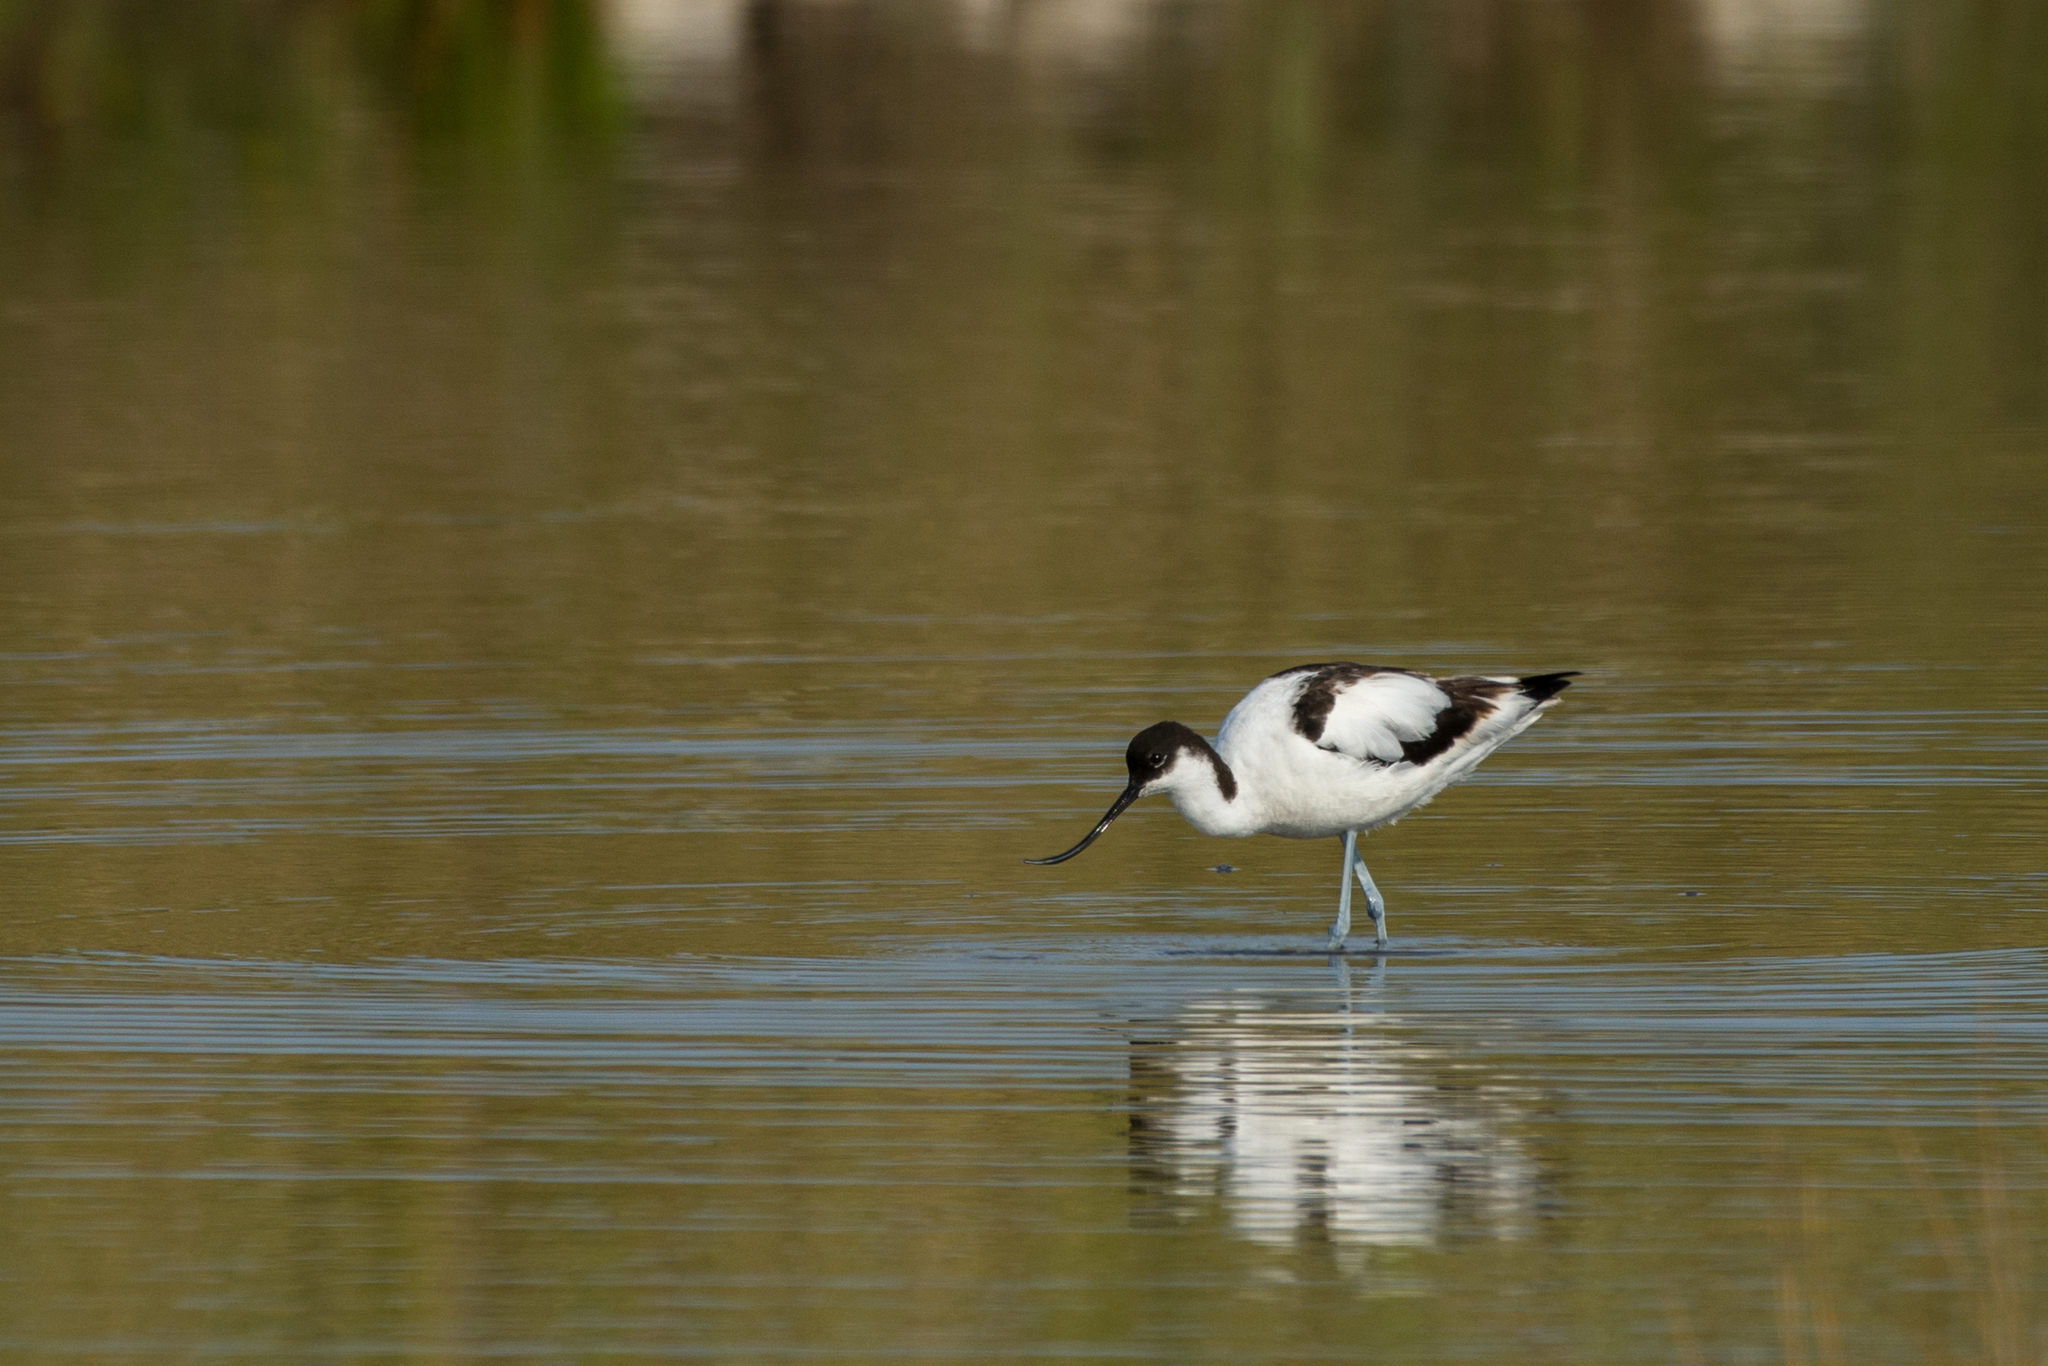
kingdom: Animalia
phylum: Chordata
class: Aves
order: Charadriiformes
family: Recurvirostridae
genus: Recurvirostra
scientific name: Recurvirostra avosetta
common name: Pied avocet
